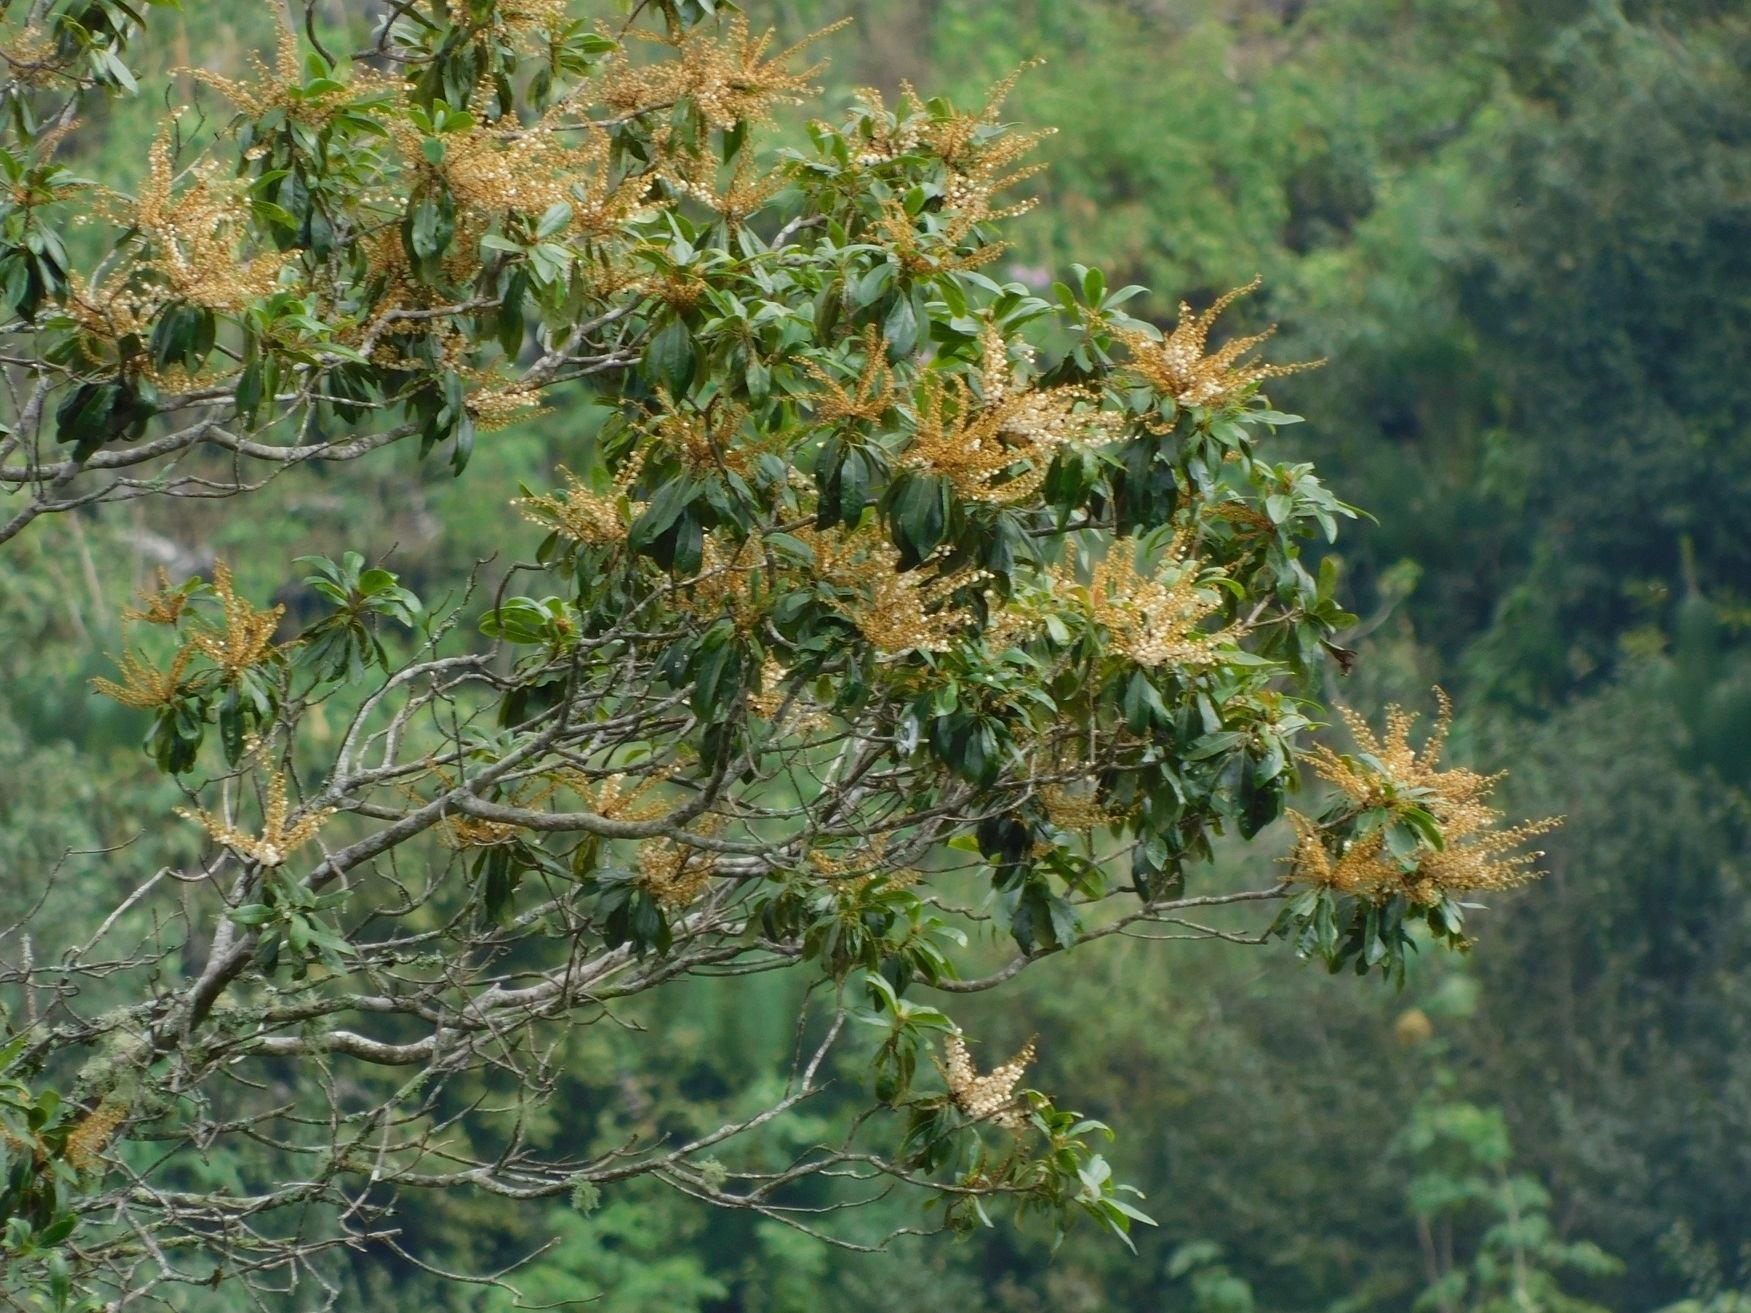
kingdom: Plantae
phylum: Tracheophyta
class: Magnoliopsida
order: Ericales
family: Clethraceae
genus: Clethra
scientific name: Clethra suaveolens
